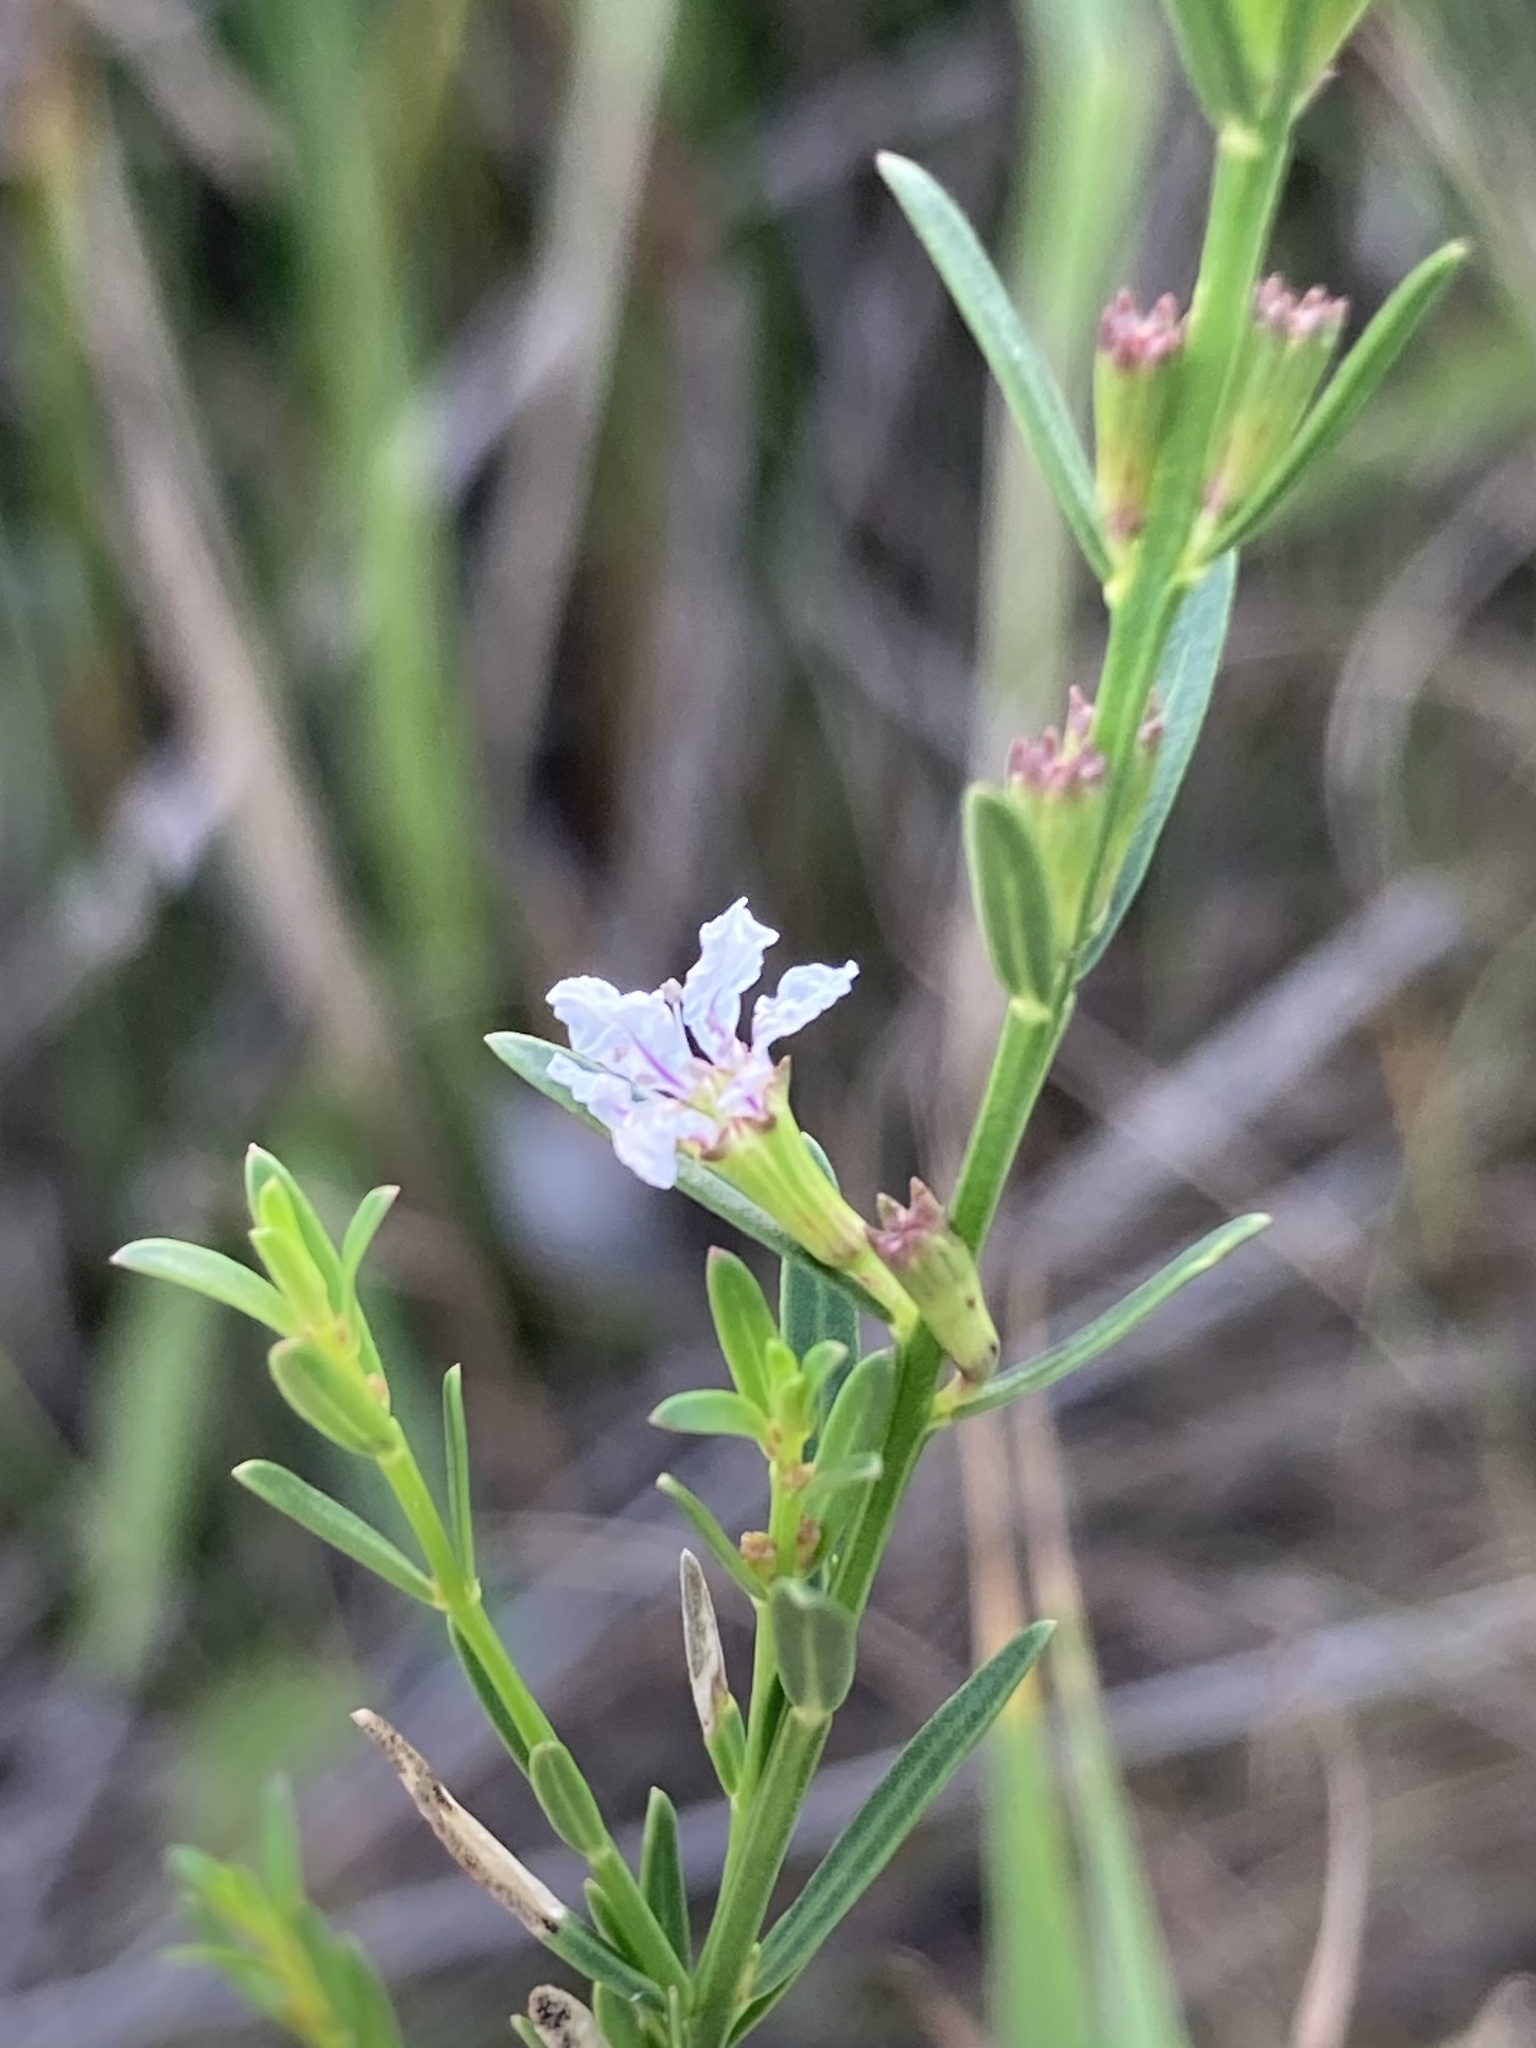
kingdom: Plantae
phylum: Tracheophyta
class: Magnoliopsida
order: Myrtales
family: Lythraceae
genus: Lythrum
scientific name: Lythrum lineare
